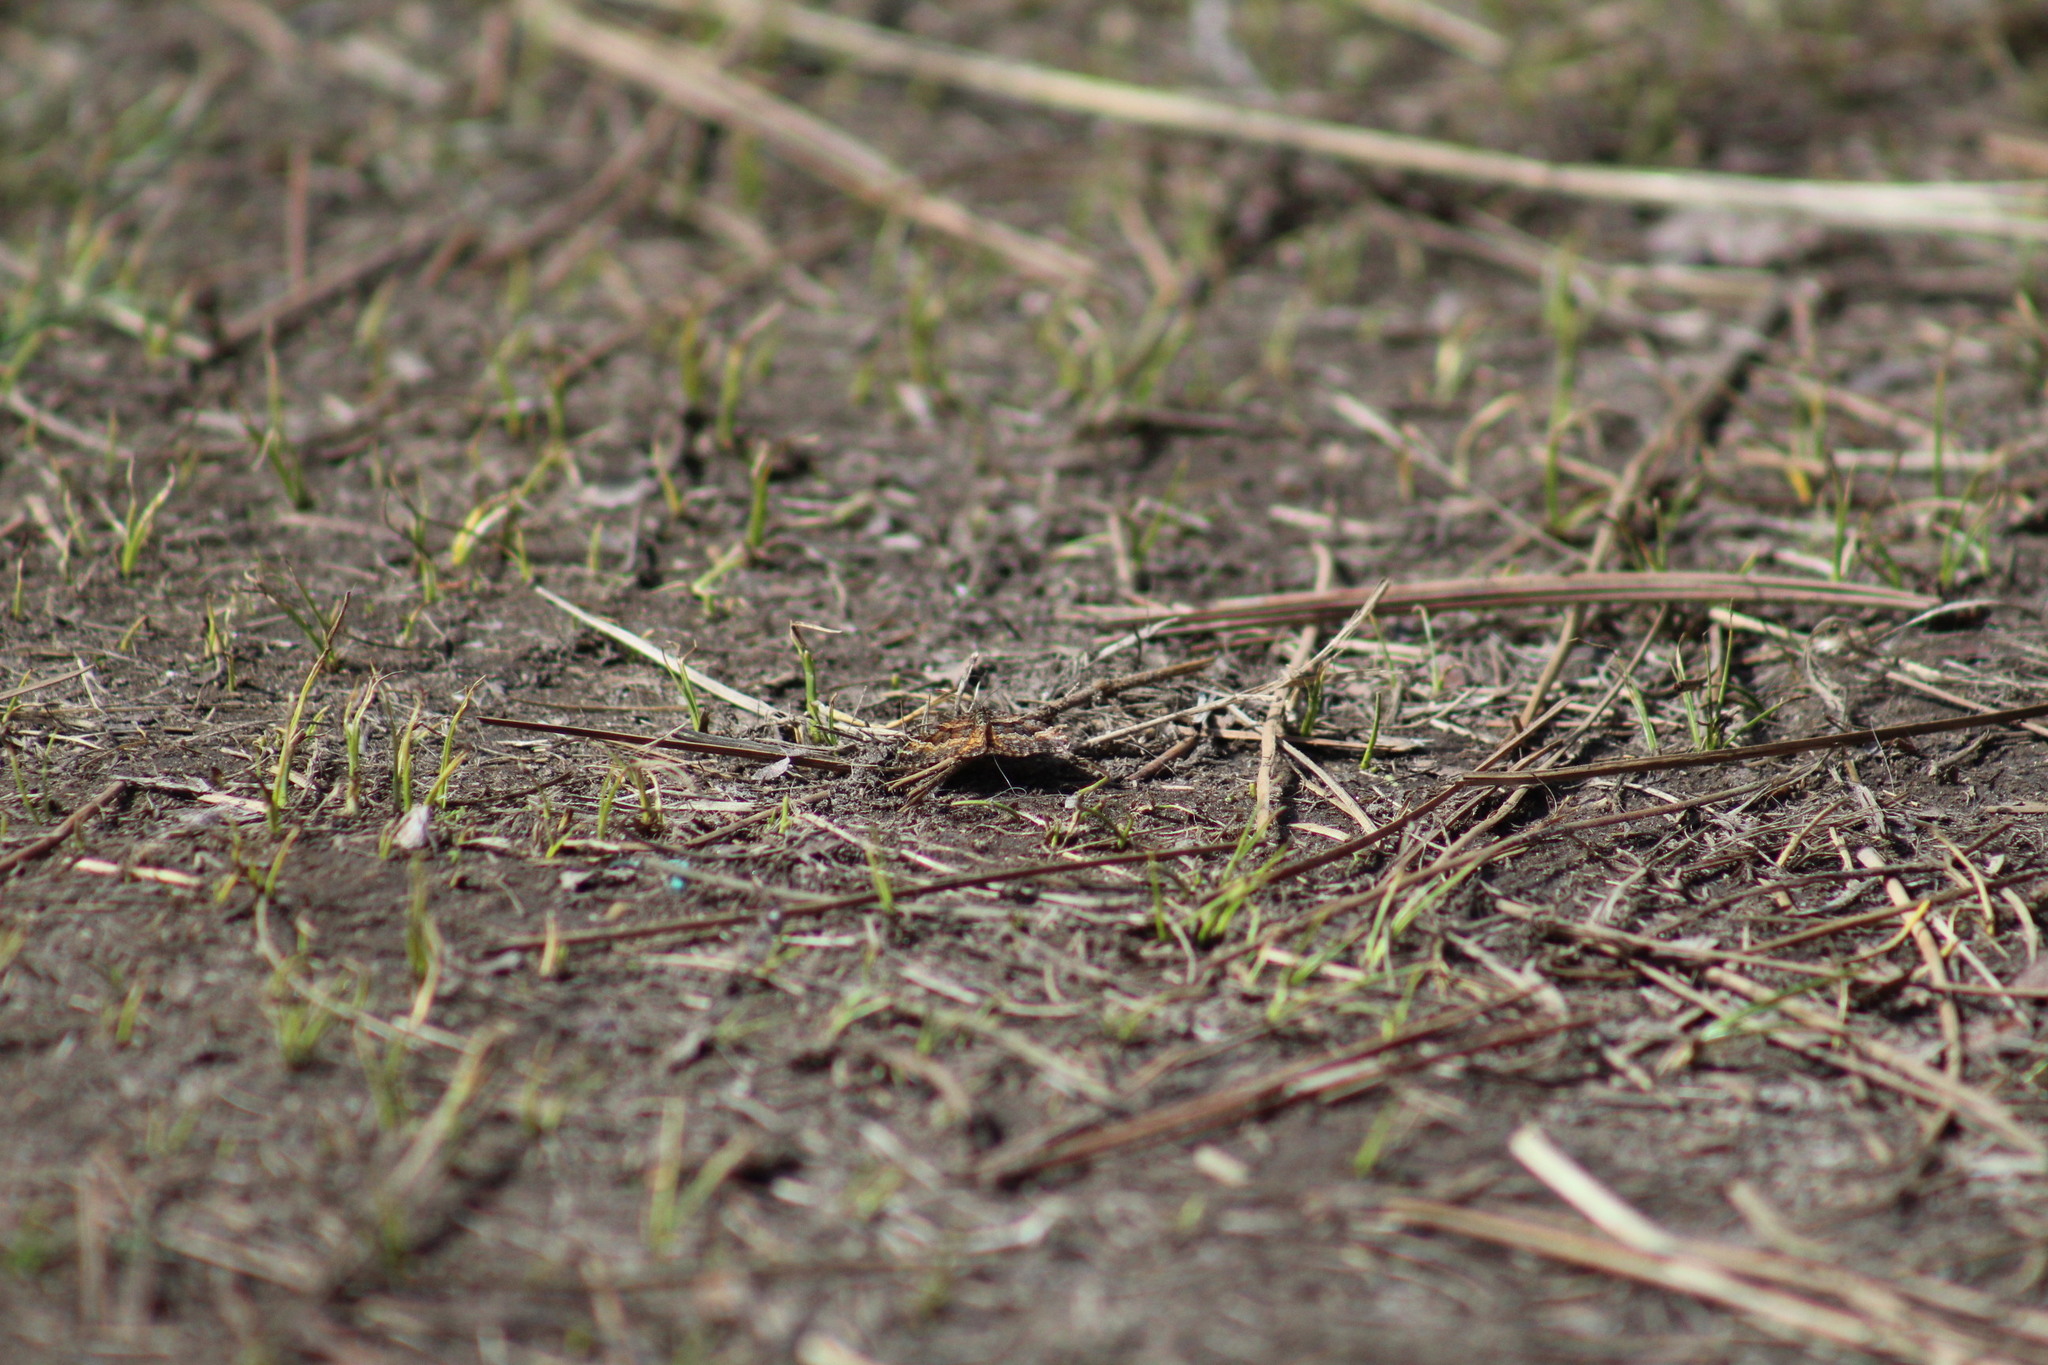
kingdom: Animalia
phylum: Arthropoda
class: Insecta
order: Lepidoptera
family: Geometridae
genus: Epirrhoe
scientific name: Epirrhoe plebeculata
